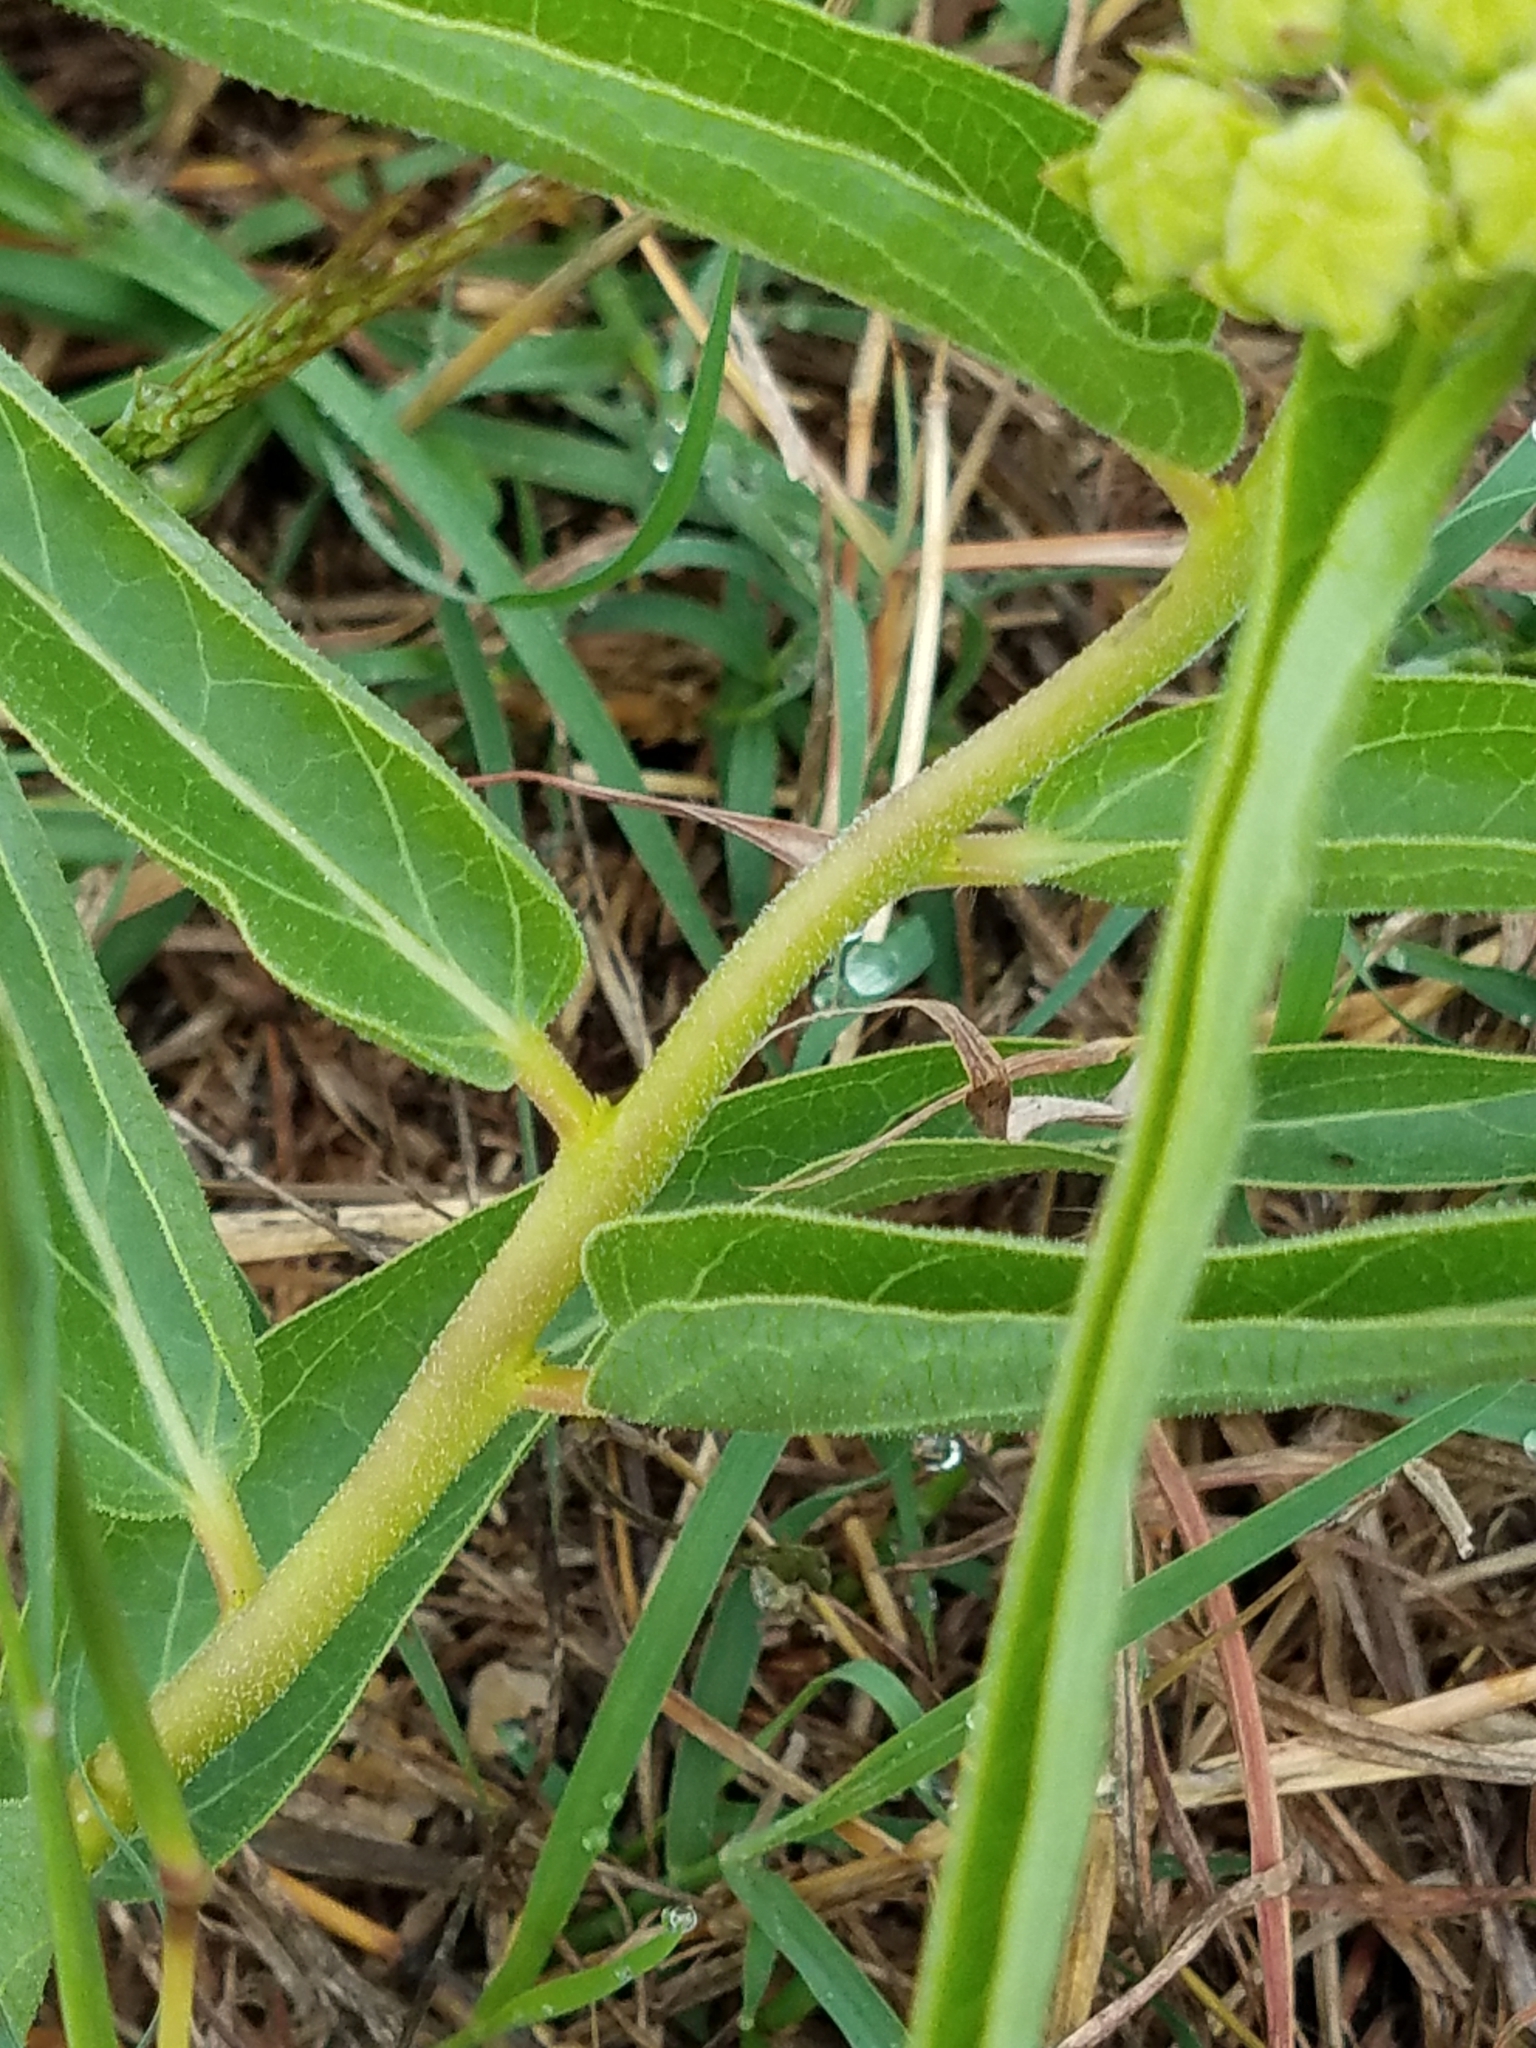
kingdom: Plantae
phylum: Tracheophyta
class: Magnoliopsida
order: Gentianales
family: Apocynaceae
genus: Asclepias
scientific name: Asclepias asperula
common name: Antelope horns
